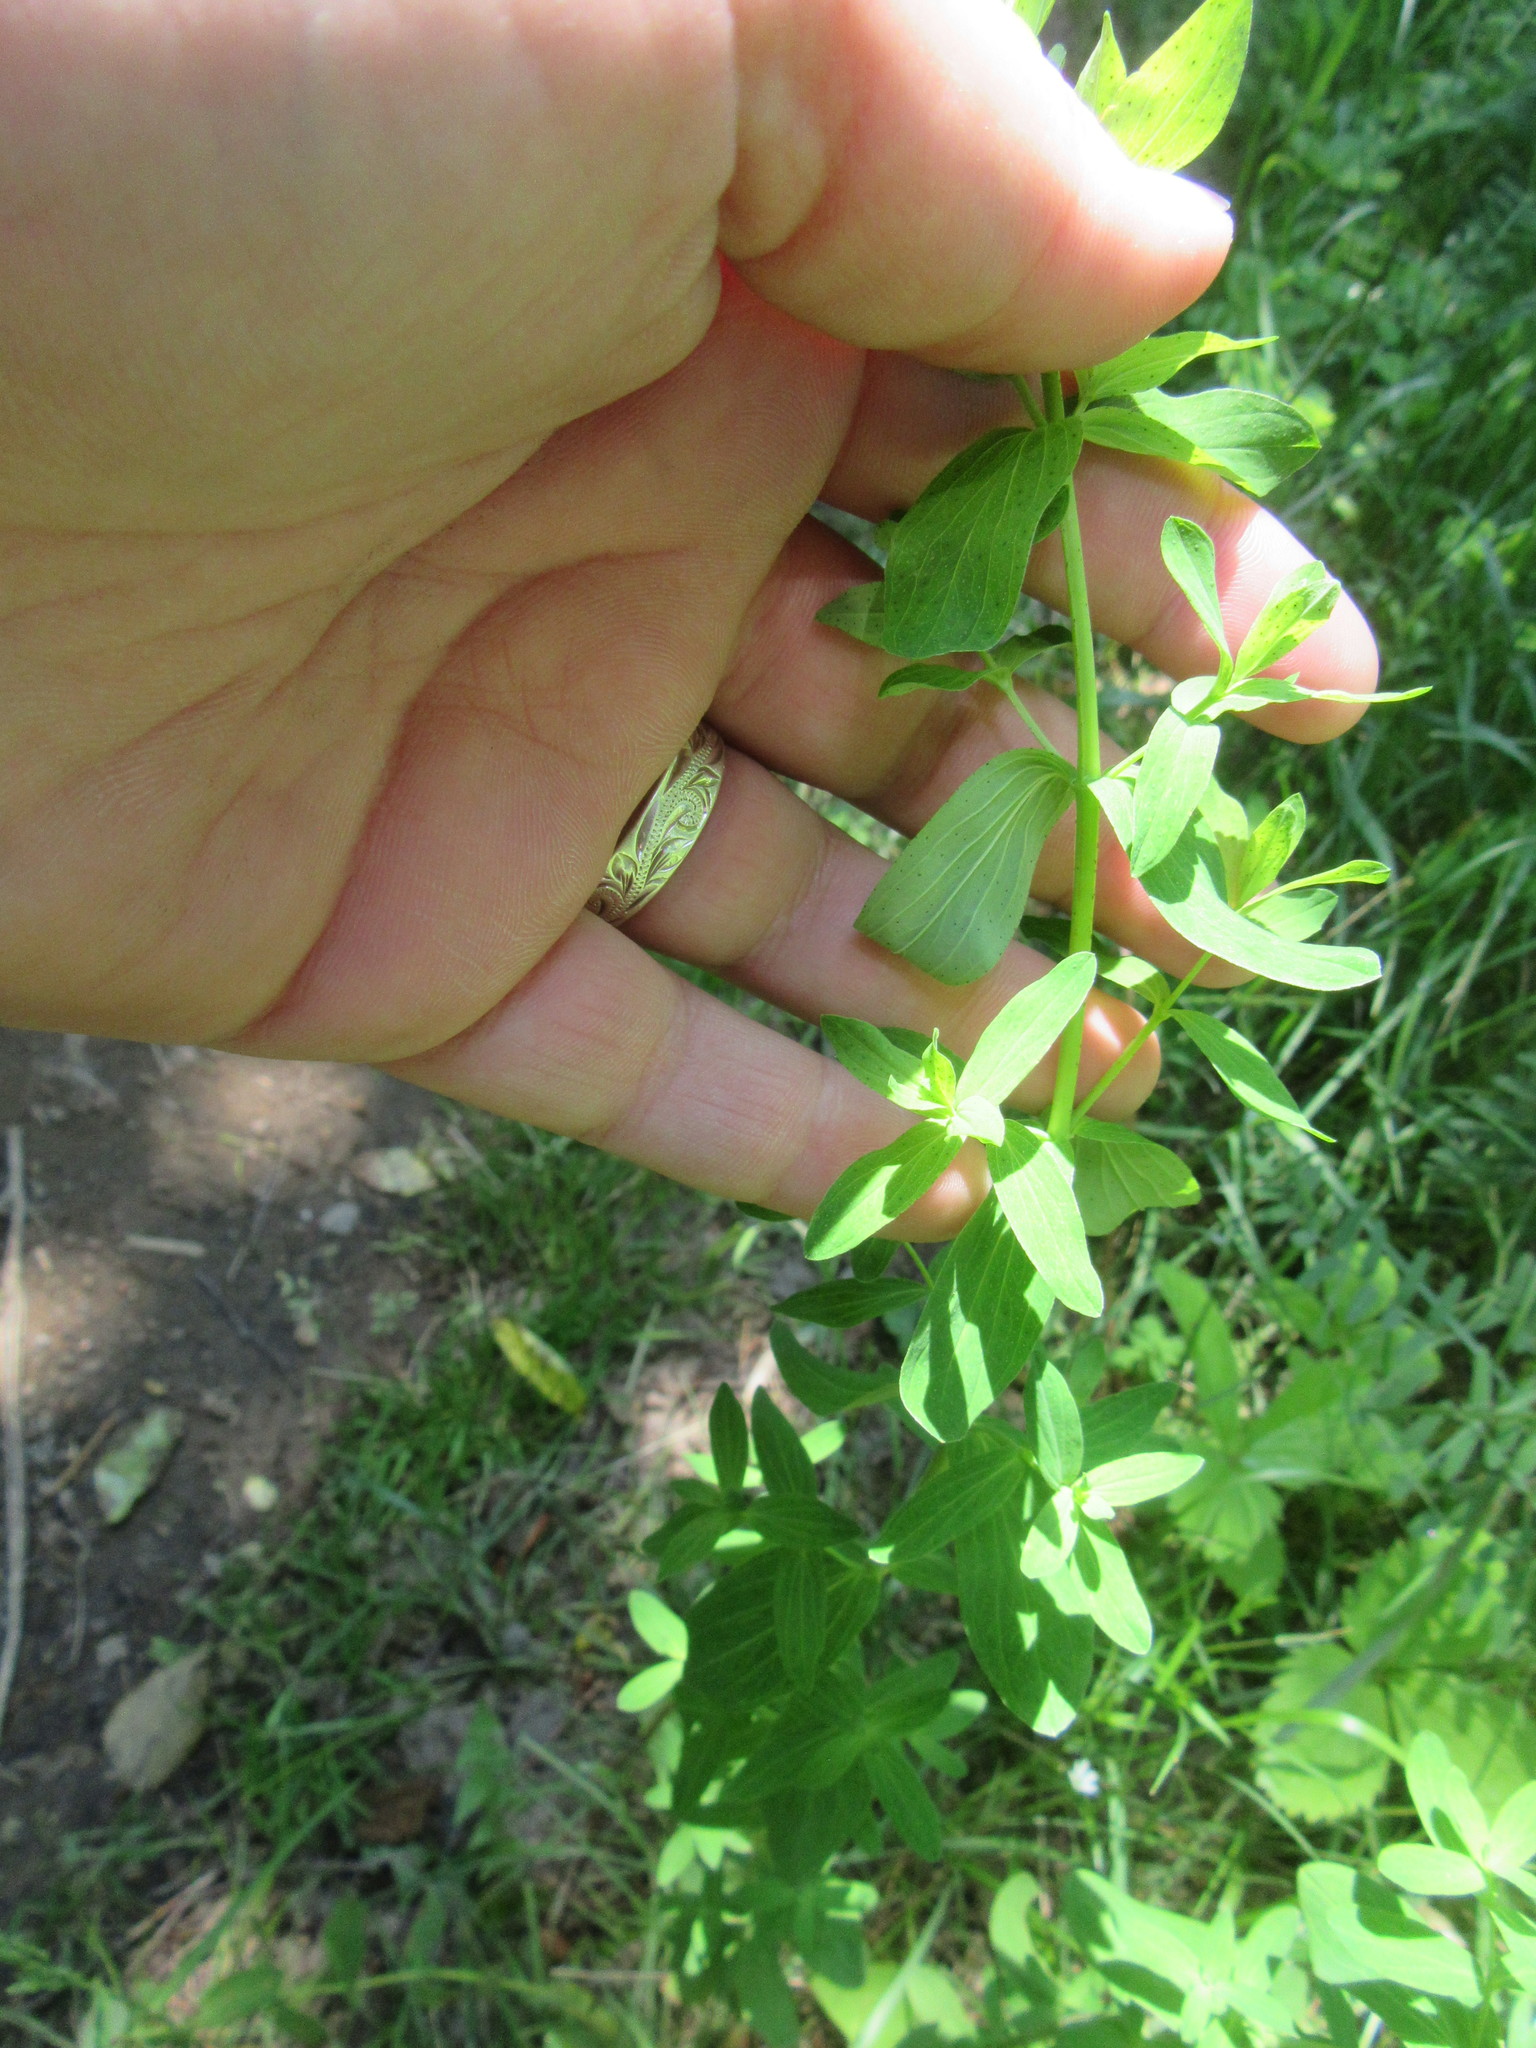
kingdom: Plantae
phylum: Tracheophyta
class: Magnoliopsida
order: Malpighiales
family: Hypericaceae
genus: Hypericum
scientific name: Hypericum perforatum
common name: Common st. johnswort
